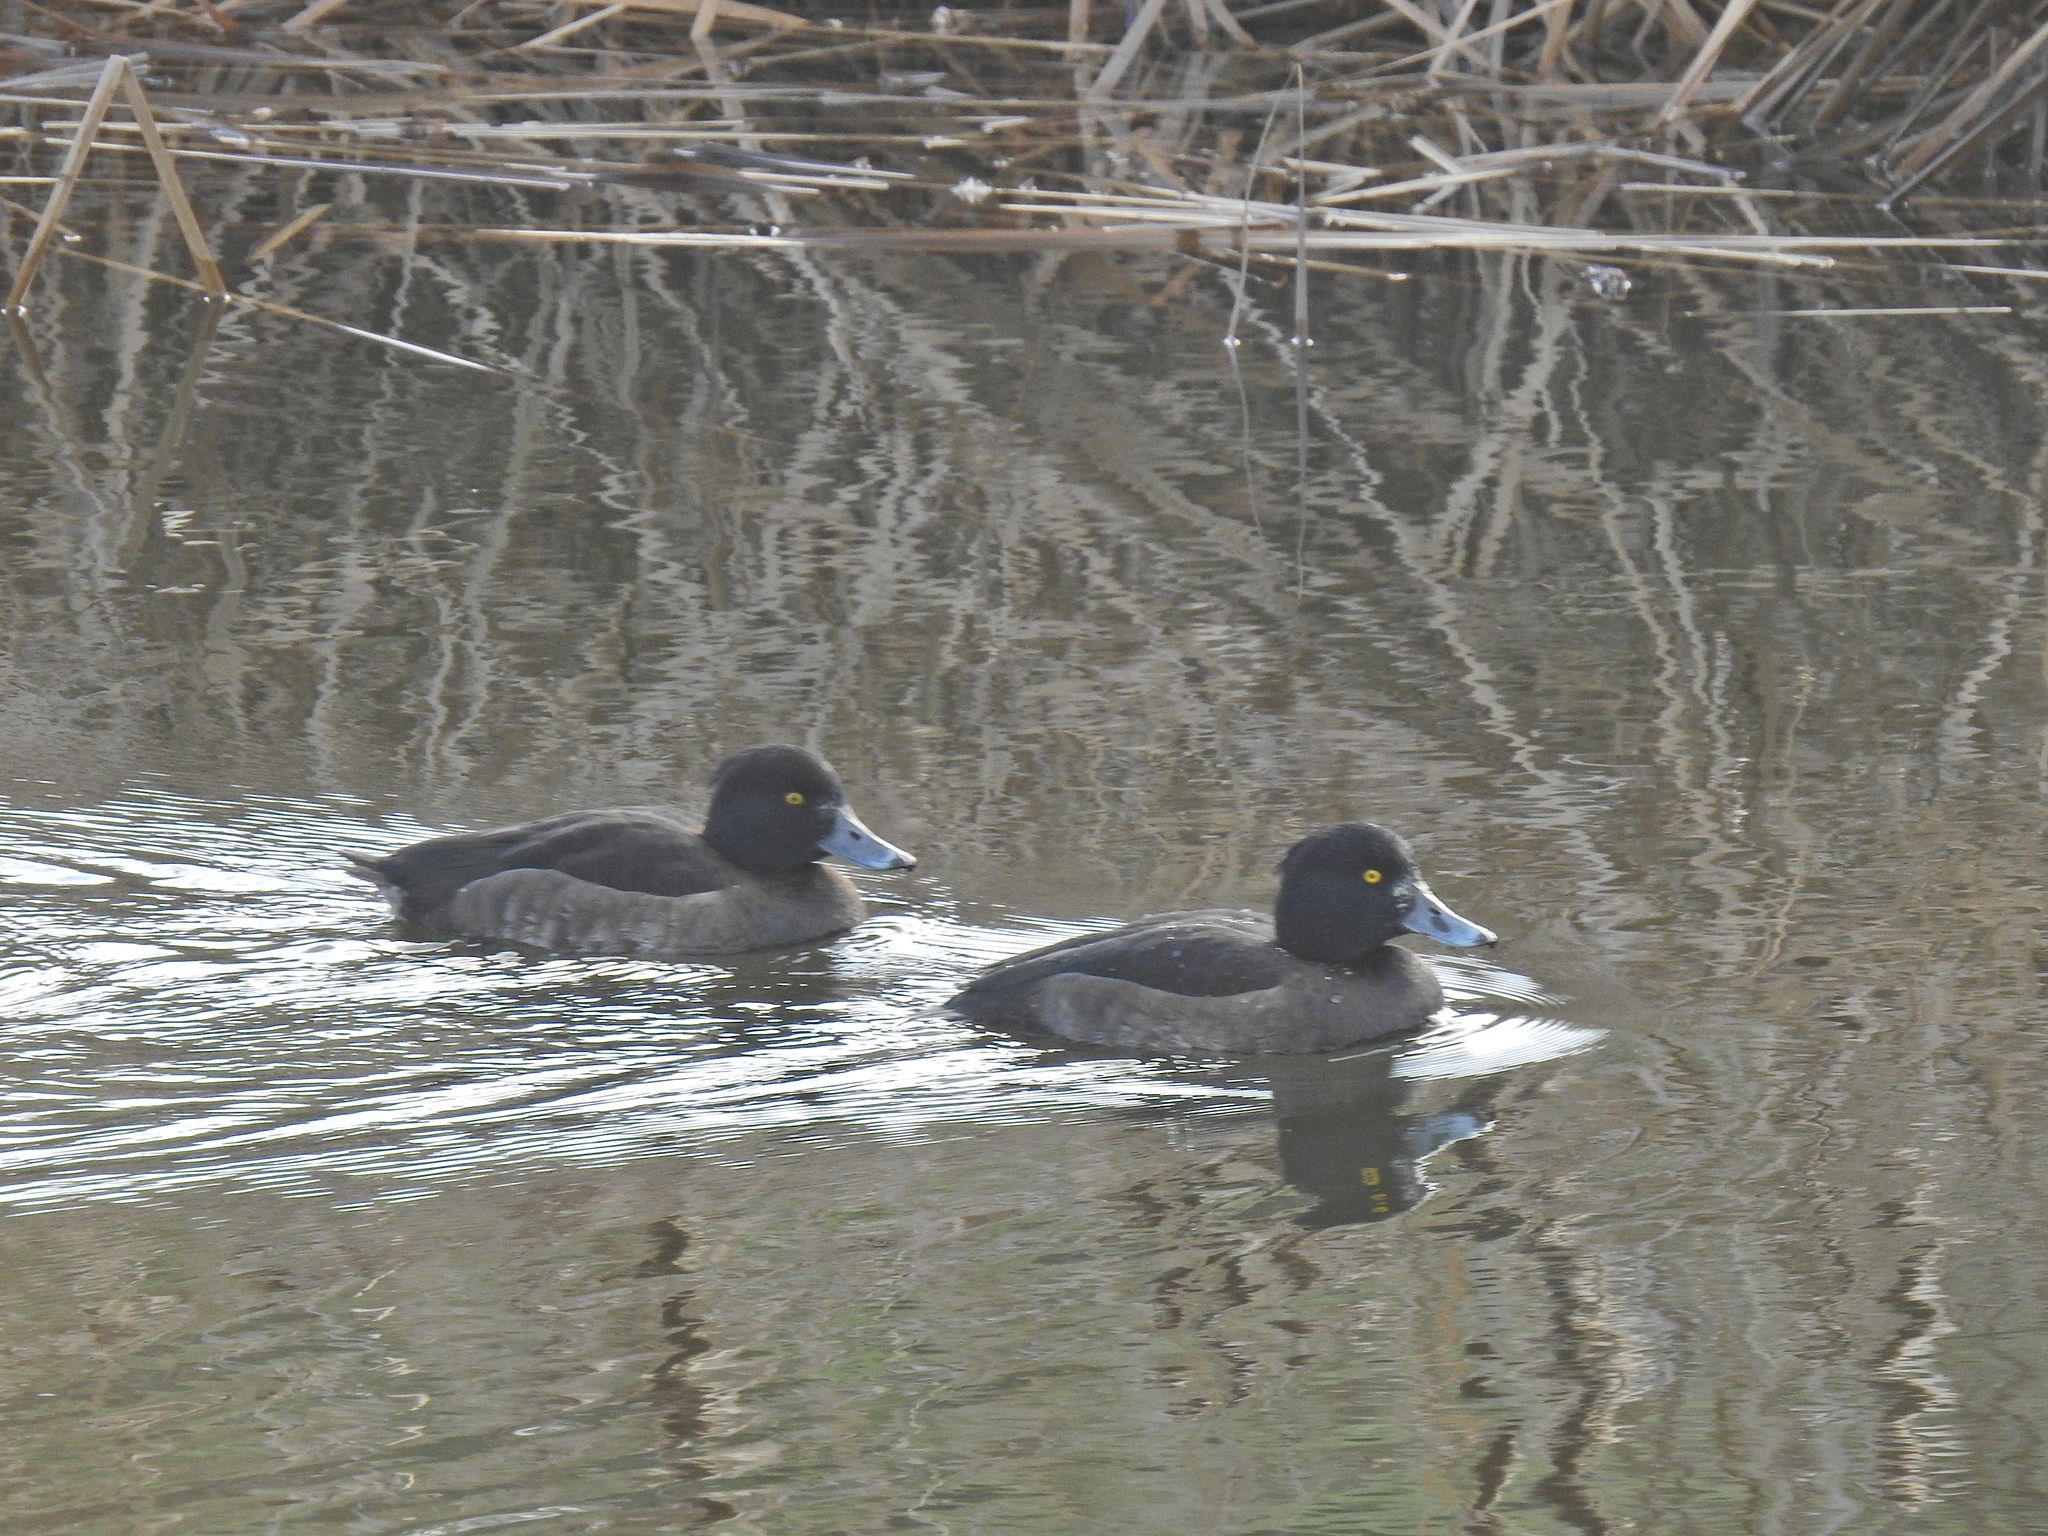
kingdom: Animalia
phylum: Chordata
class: Aves
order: Anseriformes
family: Anatidae
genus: Aythya
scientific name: Aythya fuligula
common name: Tufted duck
